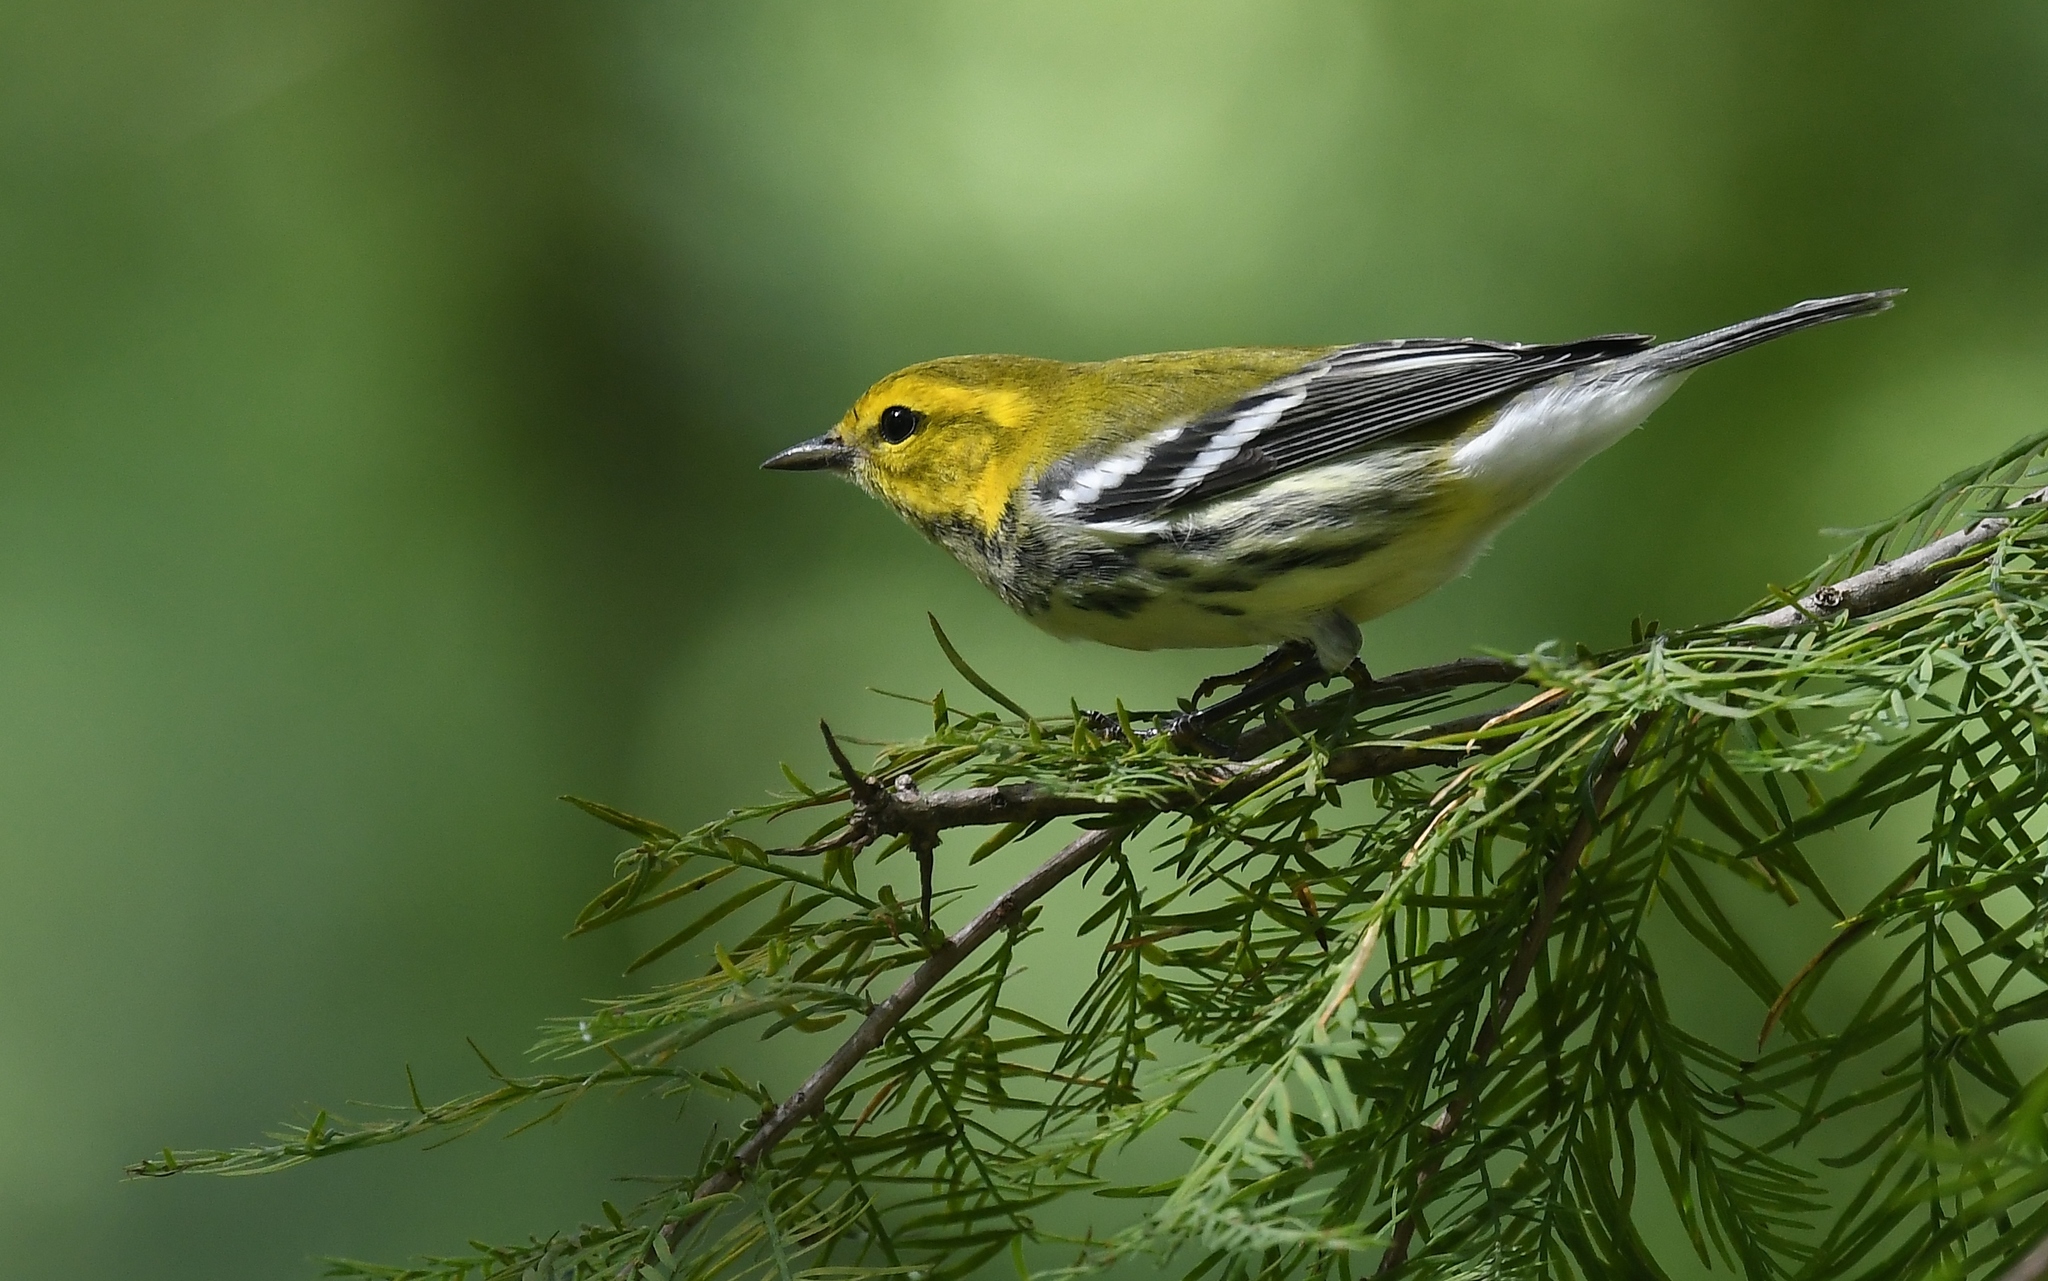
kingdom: Animalia
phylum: Chordata
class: Aves
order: Passeriformes
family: Parulidae
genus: Setophaga
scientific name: Setophaga virens
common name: Black-throated green warbler
